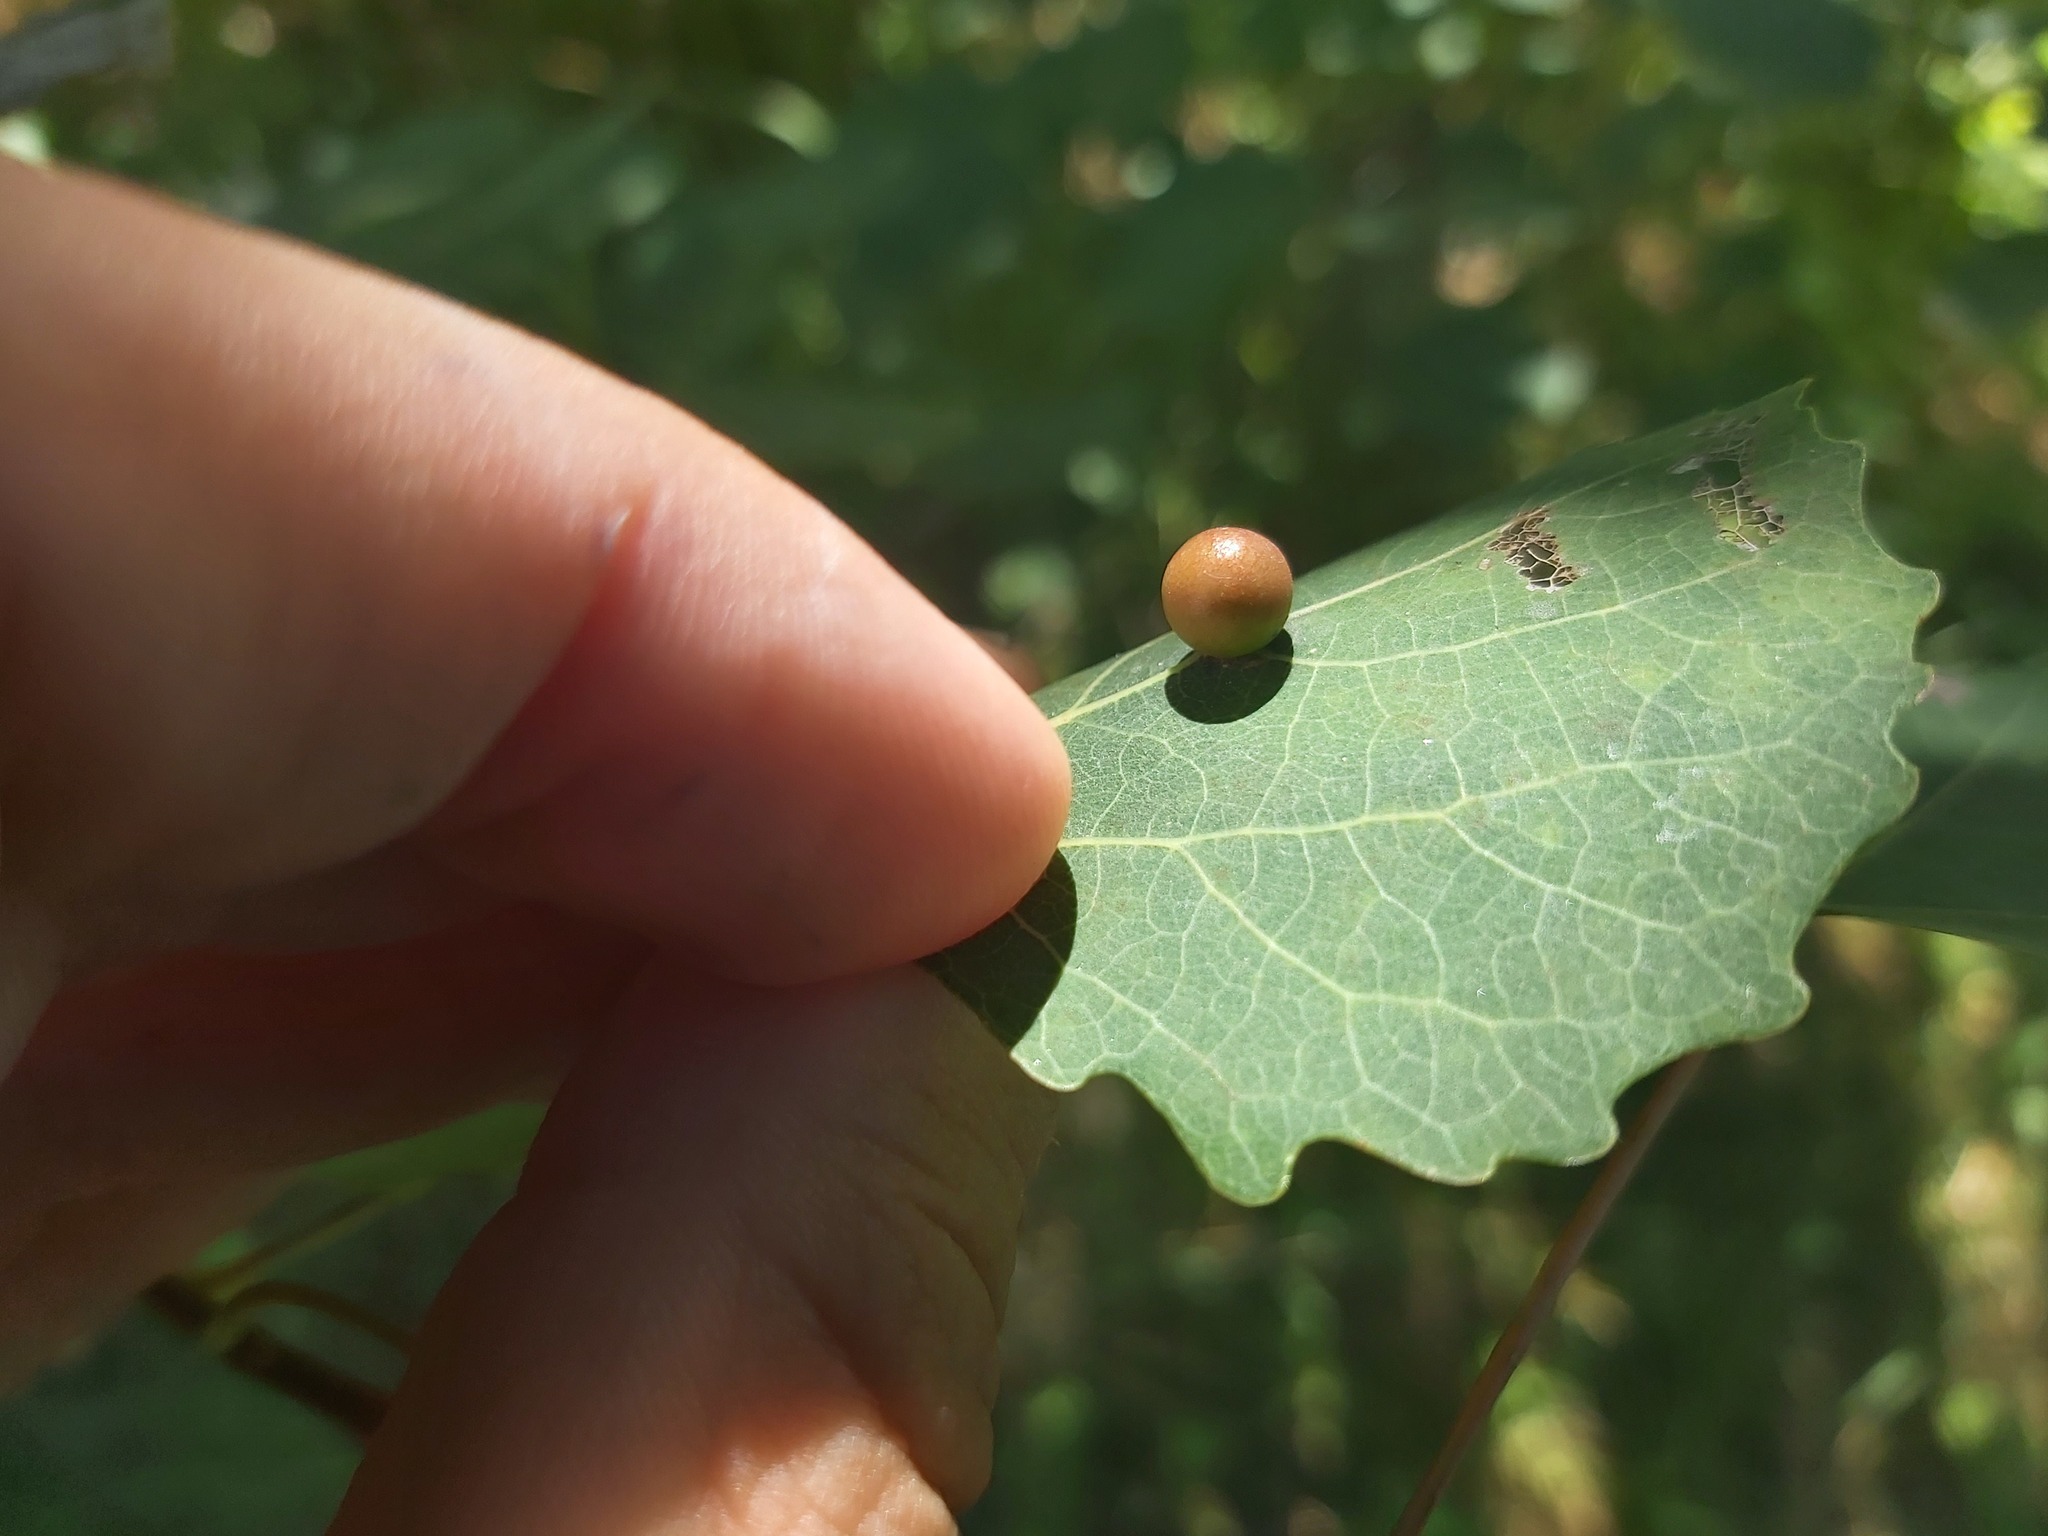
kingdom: Animalia
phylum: Arthropoda
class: Insecta
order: Diptera
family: Cecidomyiidae
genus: Harmandiola
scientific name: Harmandiola tremulae
